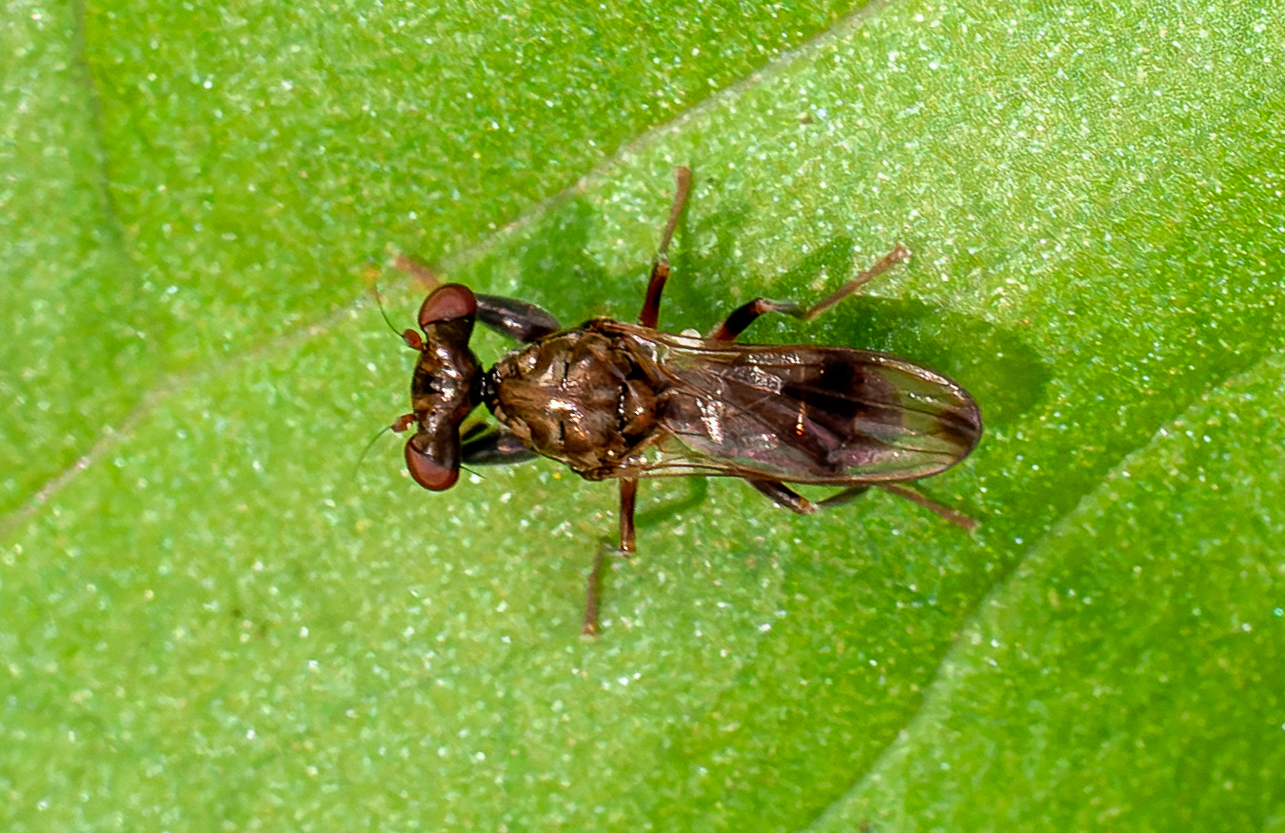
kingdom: Animalia
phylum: Arthropoda
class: Insecta
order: Diptera
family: Diopsidae
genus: Sphyracephala
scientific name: Sphyracephala brevicornis
